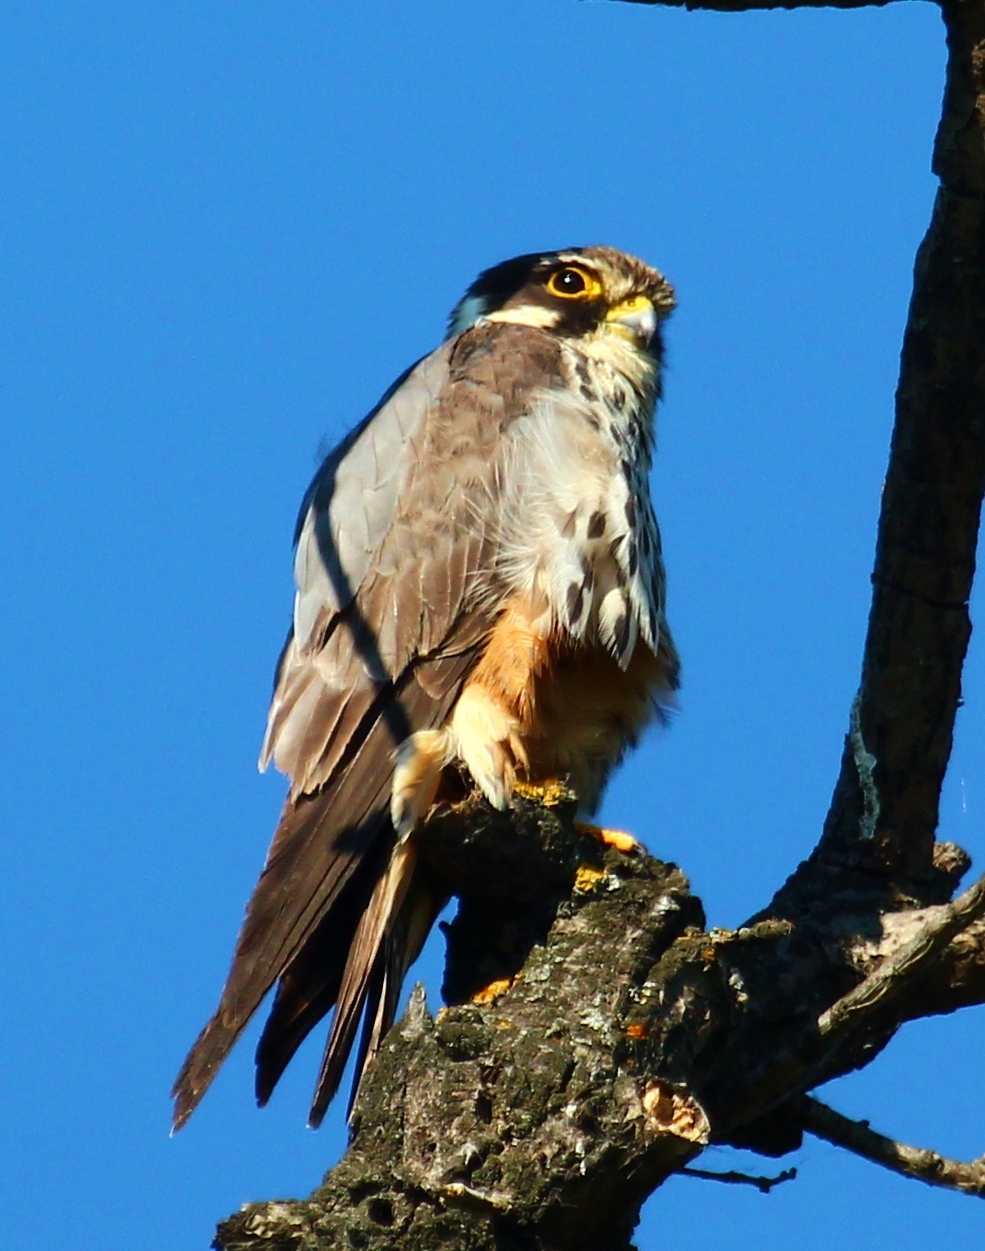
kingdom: Animalia
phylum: Chordata
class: Aves
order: Falconiformes
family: Falconidae
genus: Falco
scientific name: Falco subbuteo
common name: Eurasian hobby
